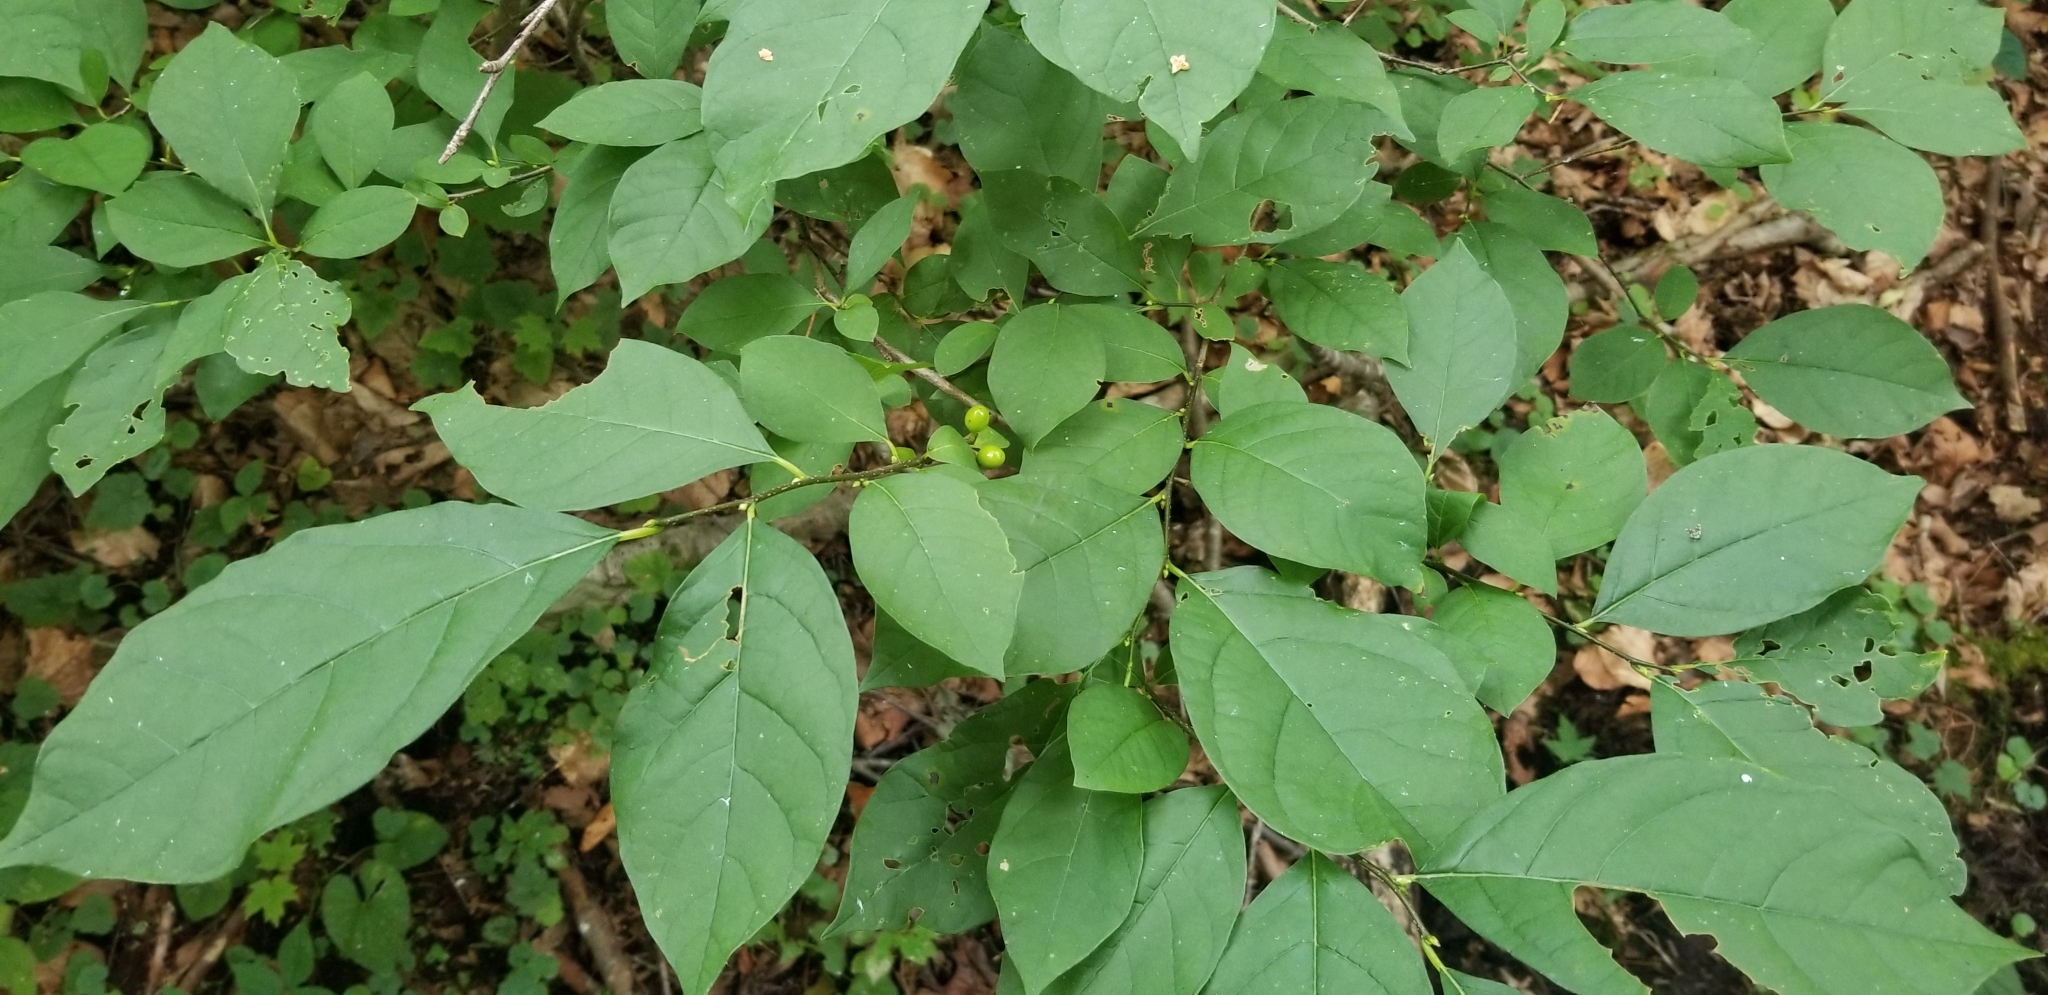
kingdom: Plantae
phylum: Tracheophyta
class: Magnoliopsida
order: Laurales
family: Lauraceae
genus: Lindera
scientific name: Lindera benzoin
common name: Spicebush
